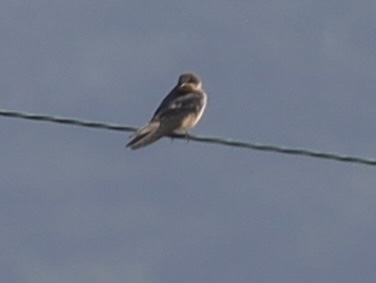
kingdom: Animalia
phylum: Chordata
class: Aves
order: Passeriformes
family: Hirundinidae
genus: Hirundo
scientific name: Hirundo rustica
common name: Barn swallow
